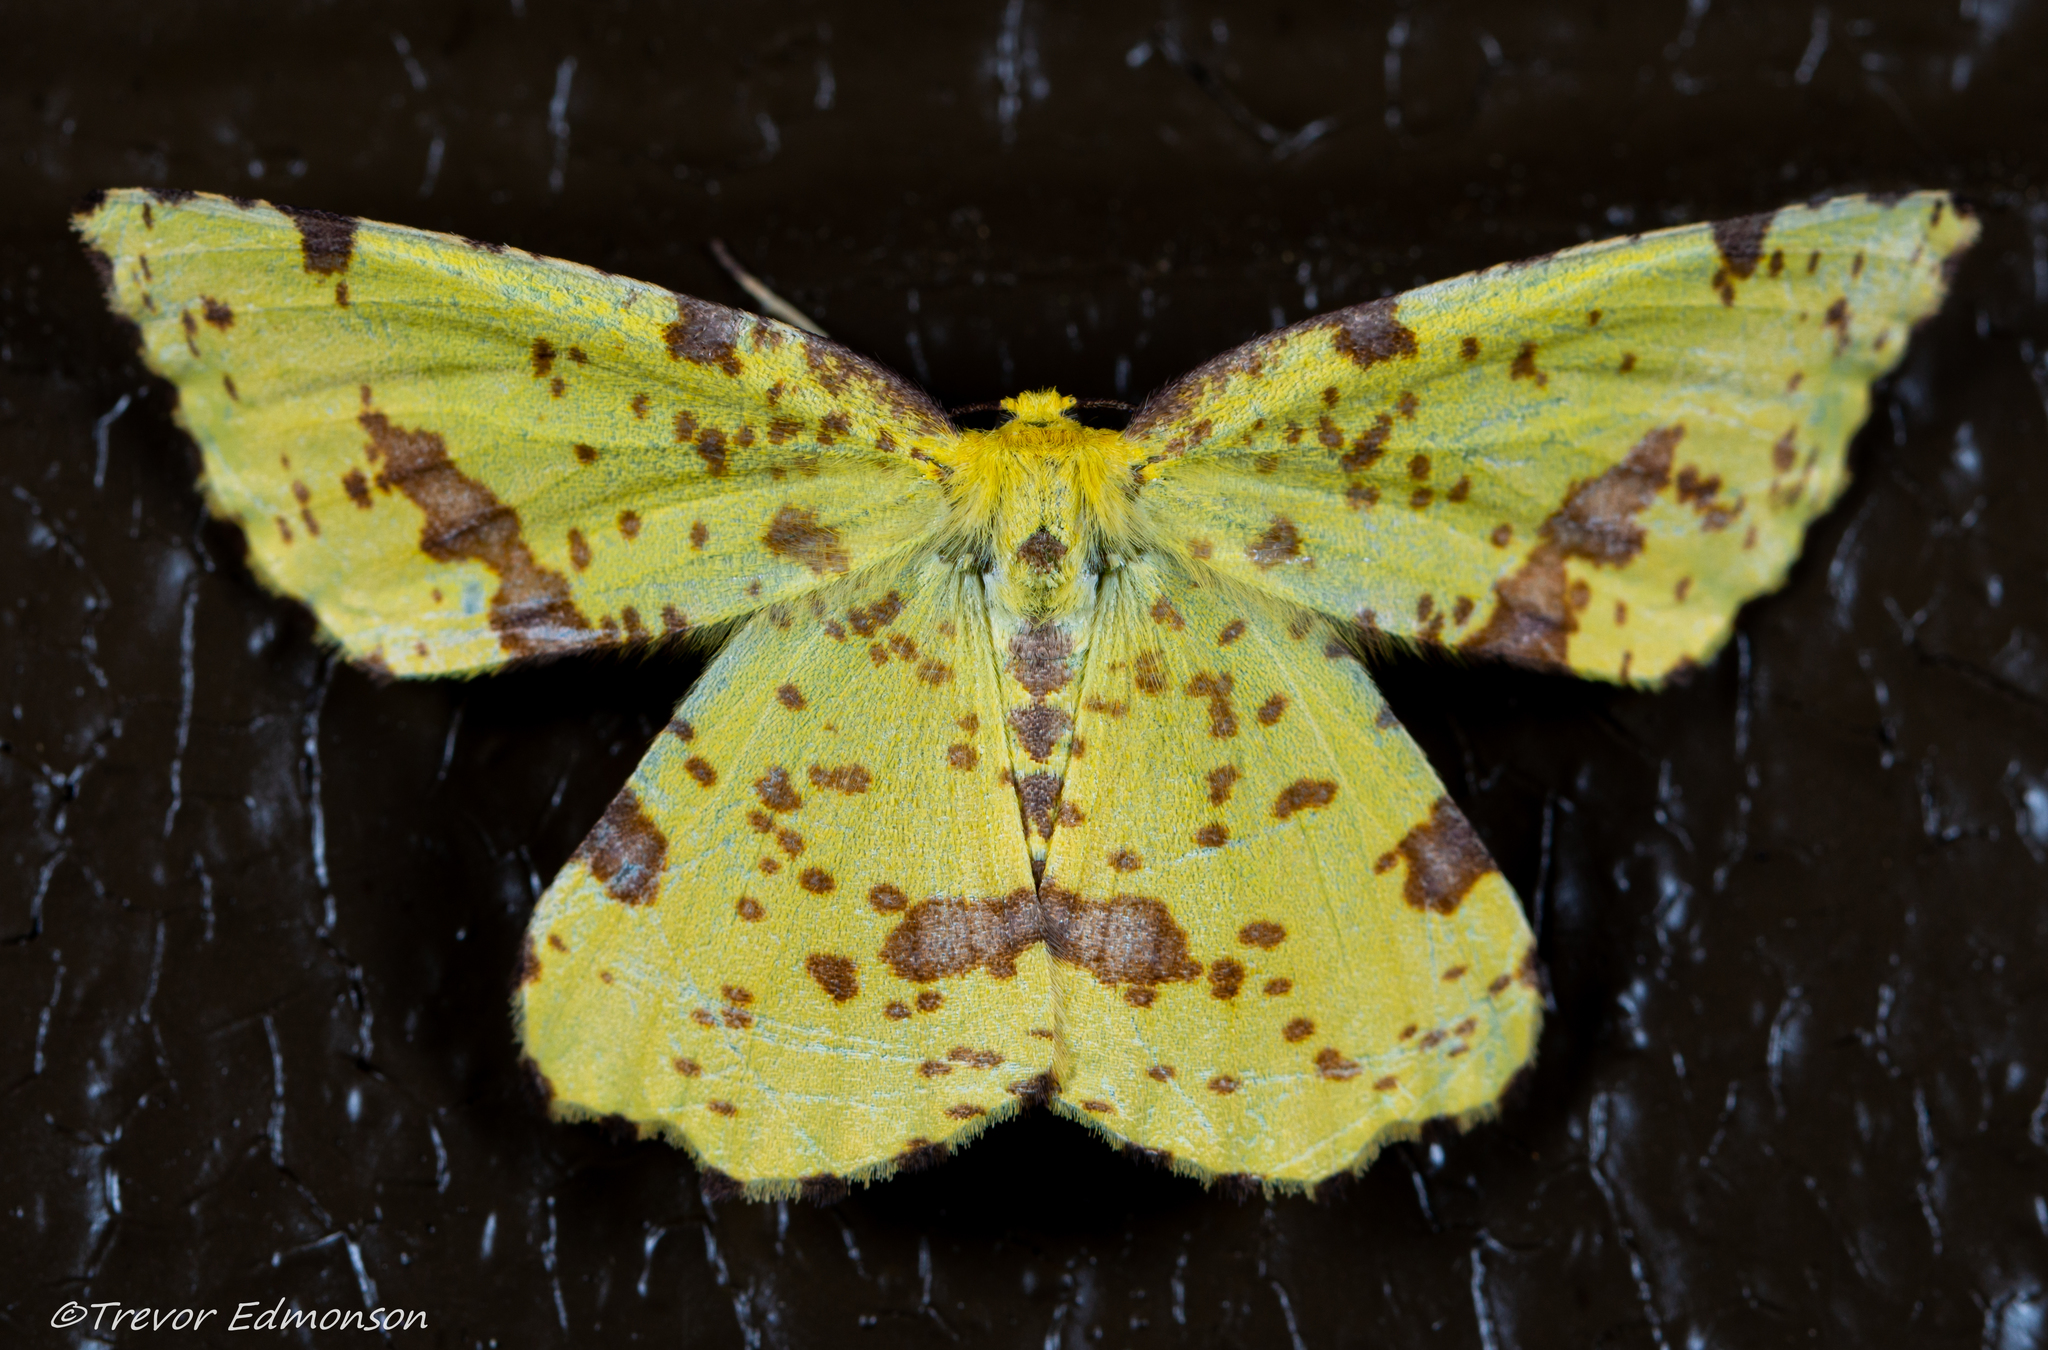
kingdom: Animalia
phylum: Arthropoda
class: Insecta
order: Lepidoptera
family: Geometridae
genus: Xanthotype
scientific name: Xanthotype
